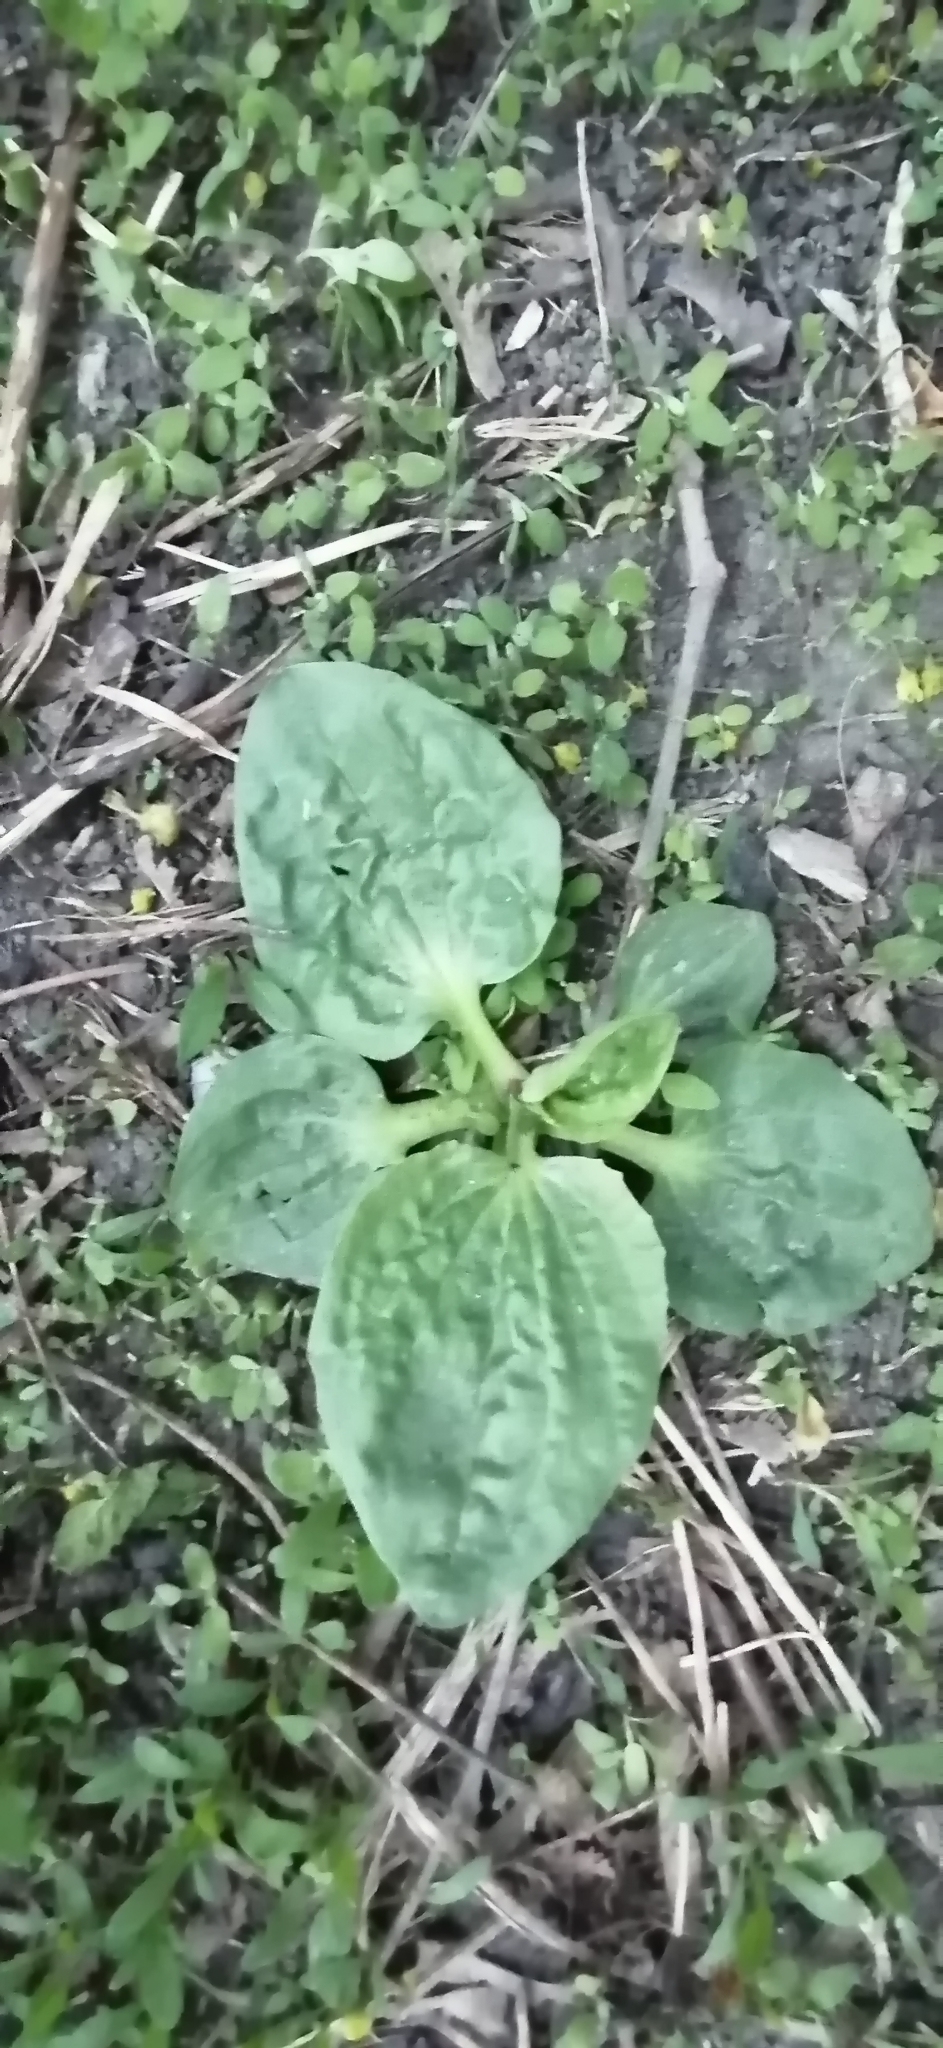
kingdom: Plantae
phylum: Tracheophyta
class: Magnoliopsida
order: Lamiales
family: Plantaginaceae
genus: Plantago
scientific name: Plantago major
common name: Common plantain
